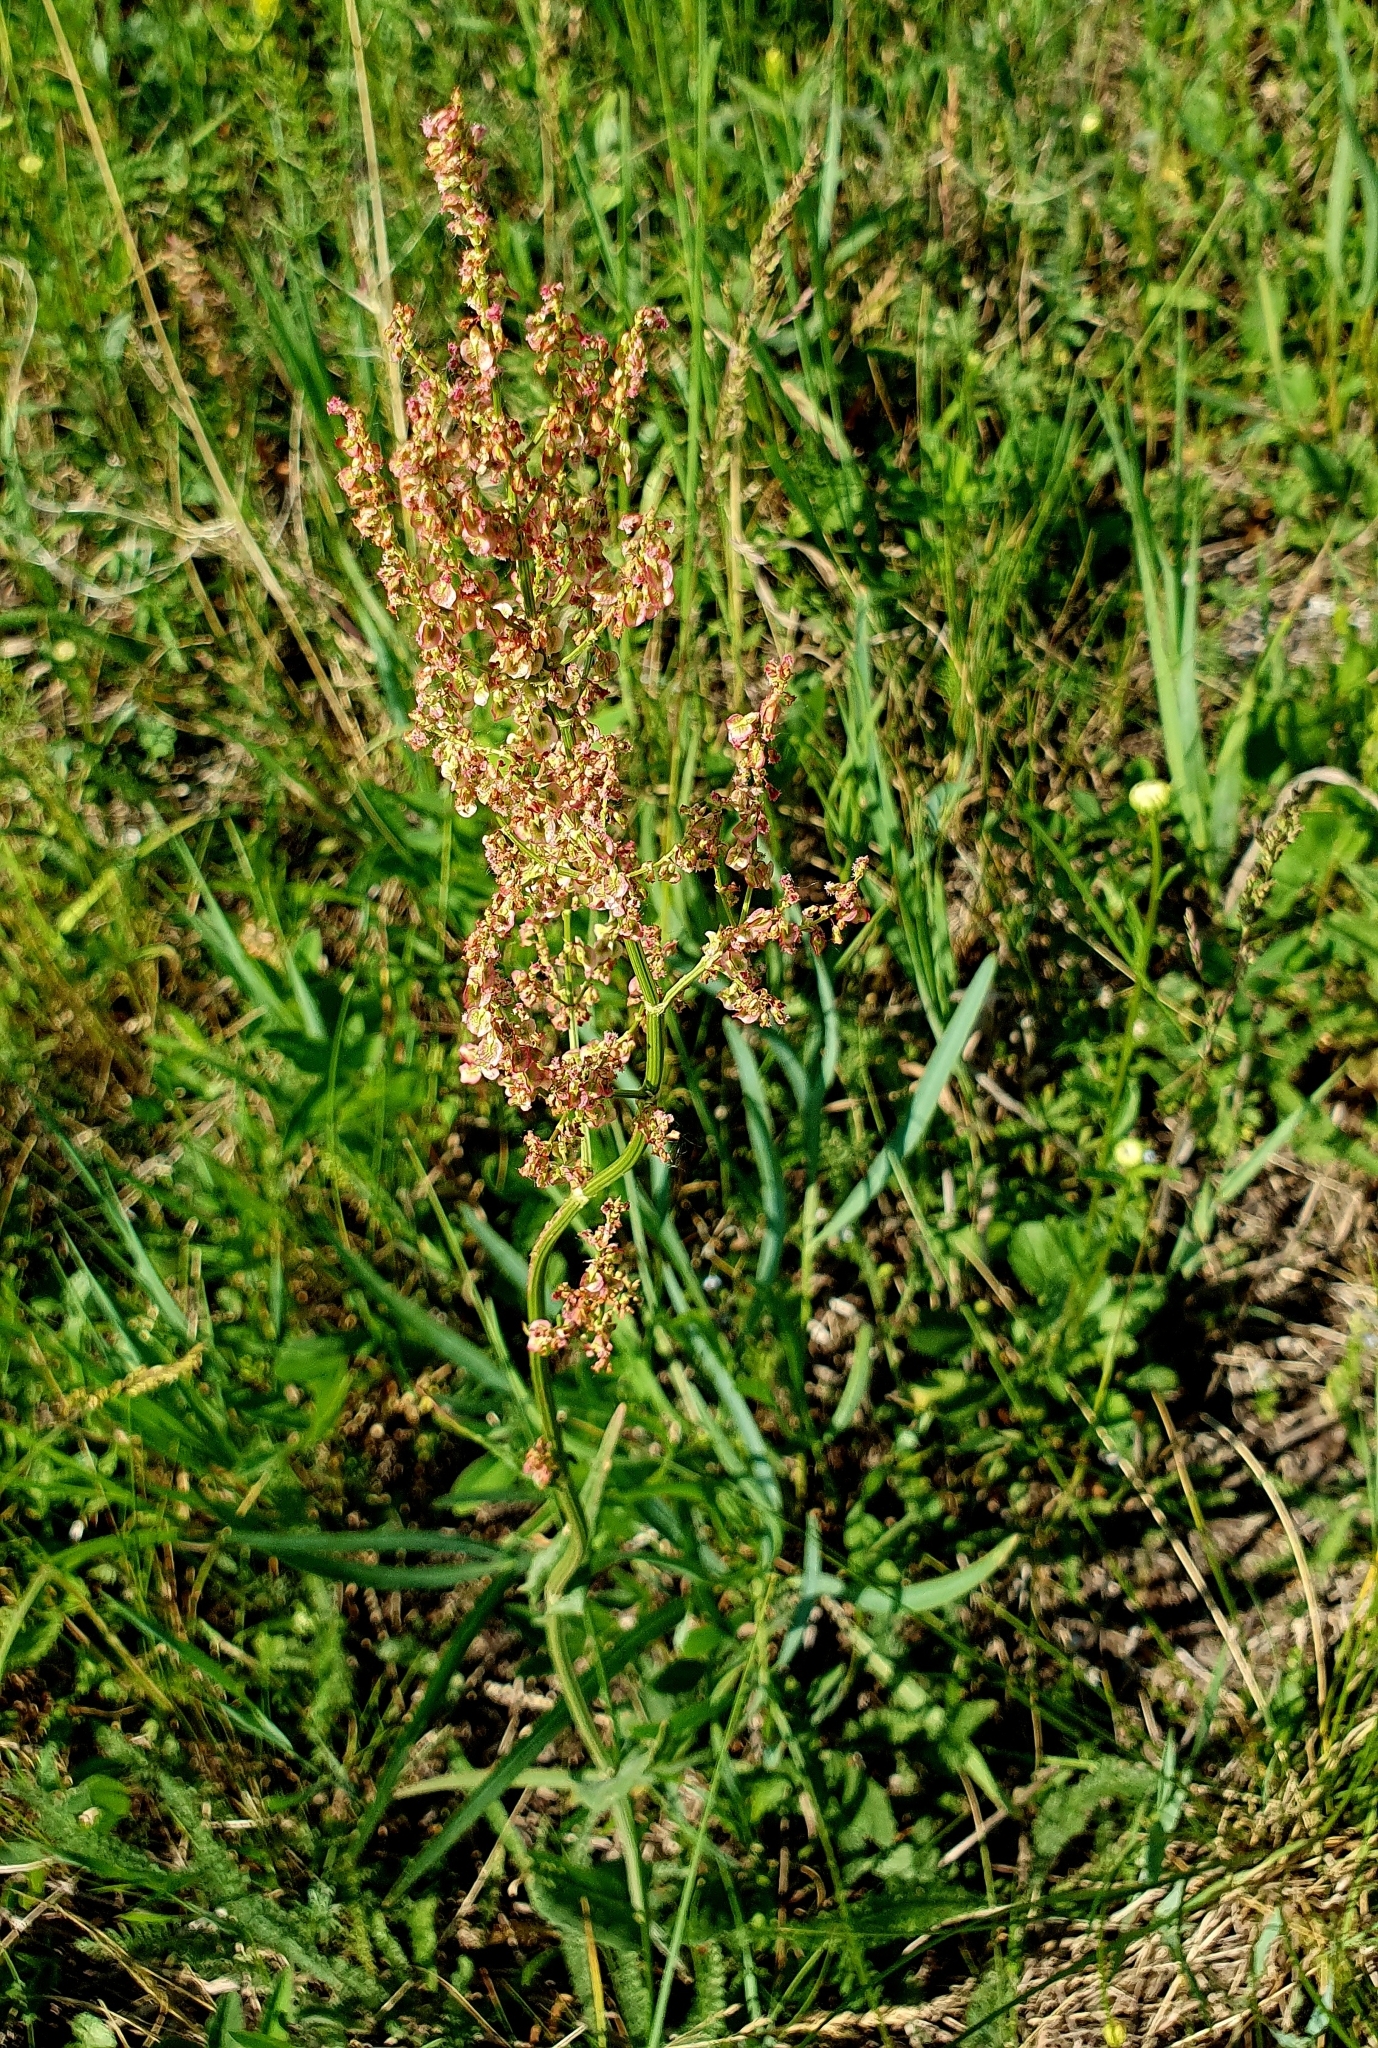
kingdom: Plantae
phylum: Tracheophyta
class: Magnoliopsida
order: Caryophyllales
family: Polygonaceae
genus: Rumex
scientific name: Rumex thyrsiflorus
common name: Garden sorrel
